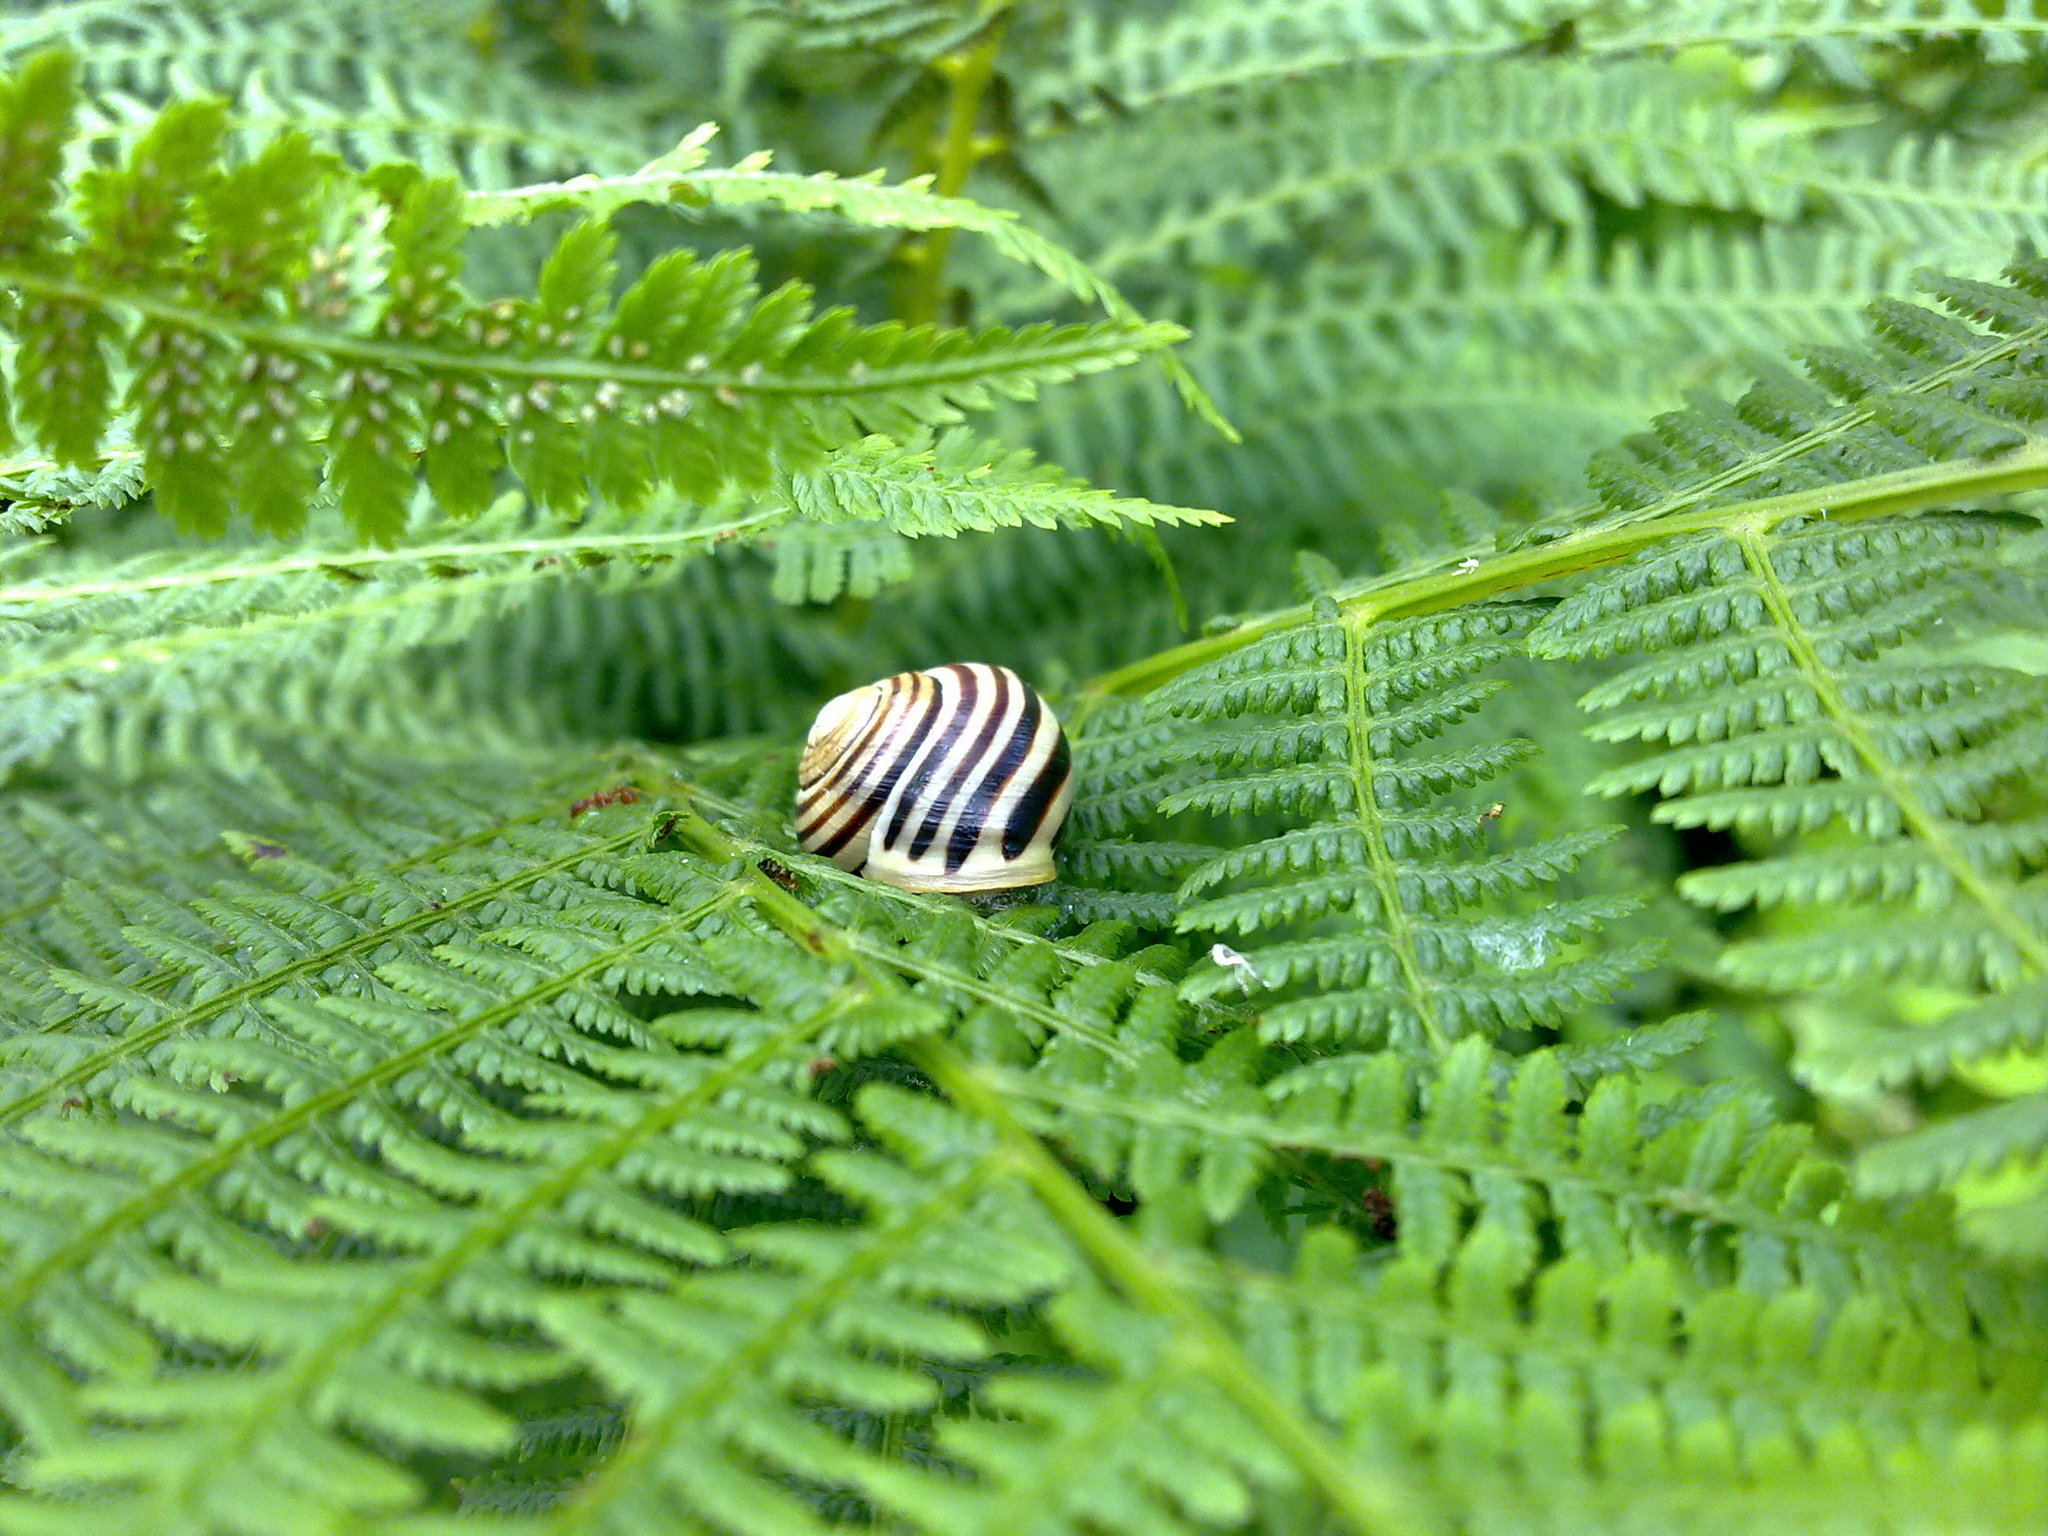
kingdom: Animalia
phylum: Mollusca
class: Gastropoda
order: Stylommatophora
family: Helicidae
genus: Cepaea
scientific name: Cepaea hortensis
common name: White-lip gardensnail
